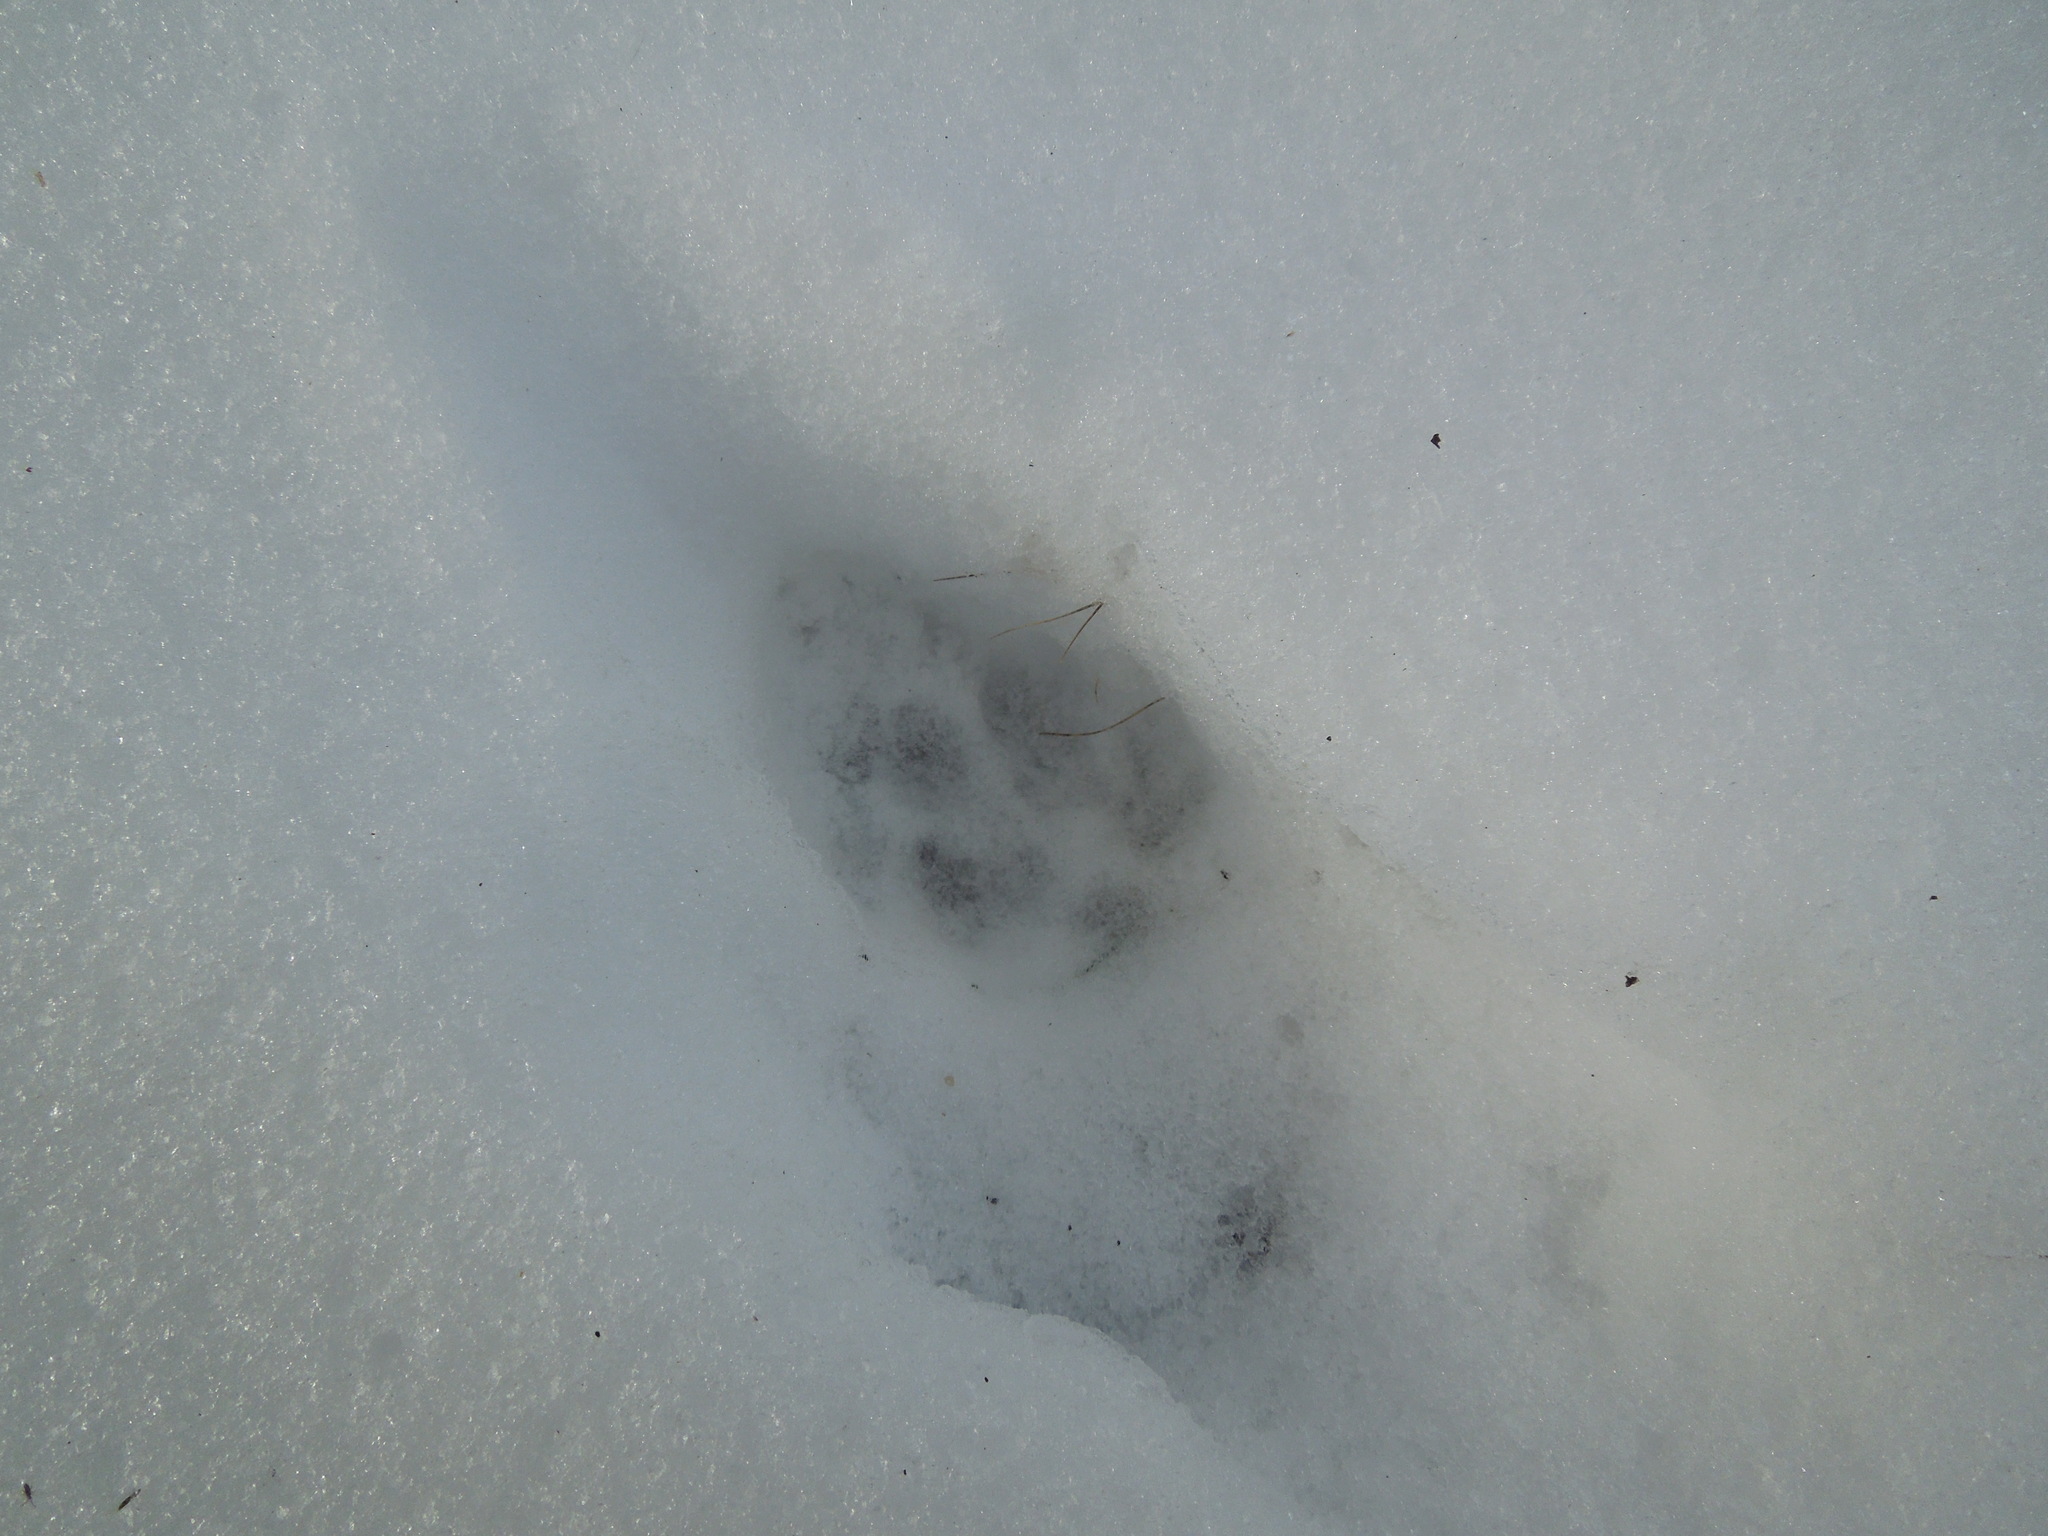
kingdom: Animalia
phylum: Chordata
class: Mammalia
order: Carnivora
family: Canidae
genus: Vulpes
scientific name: Vulpes vulpes
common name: Red fox
